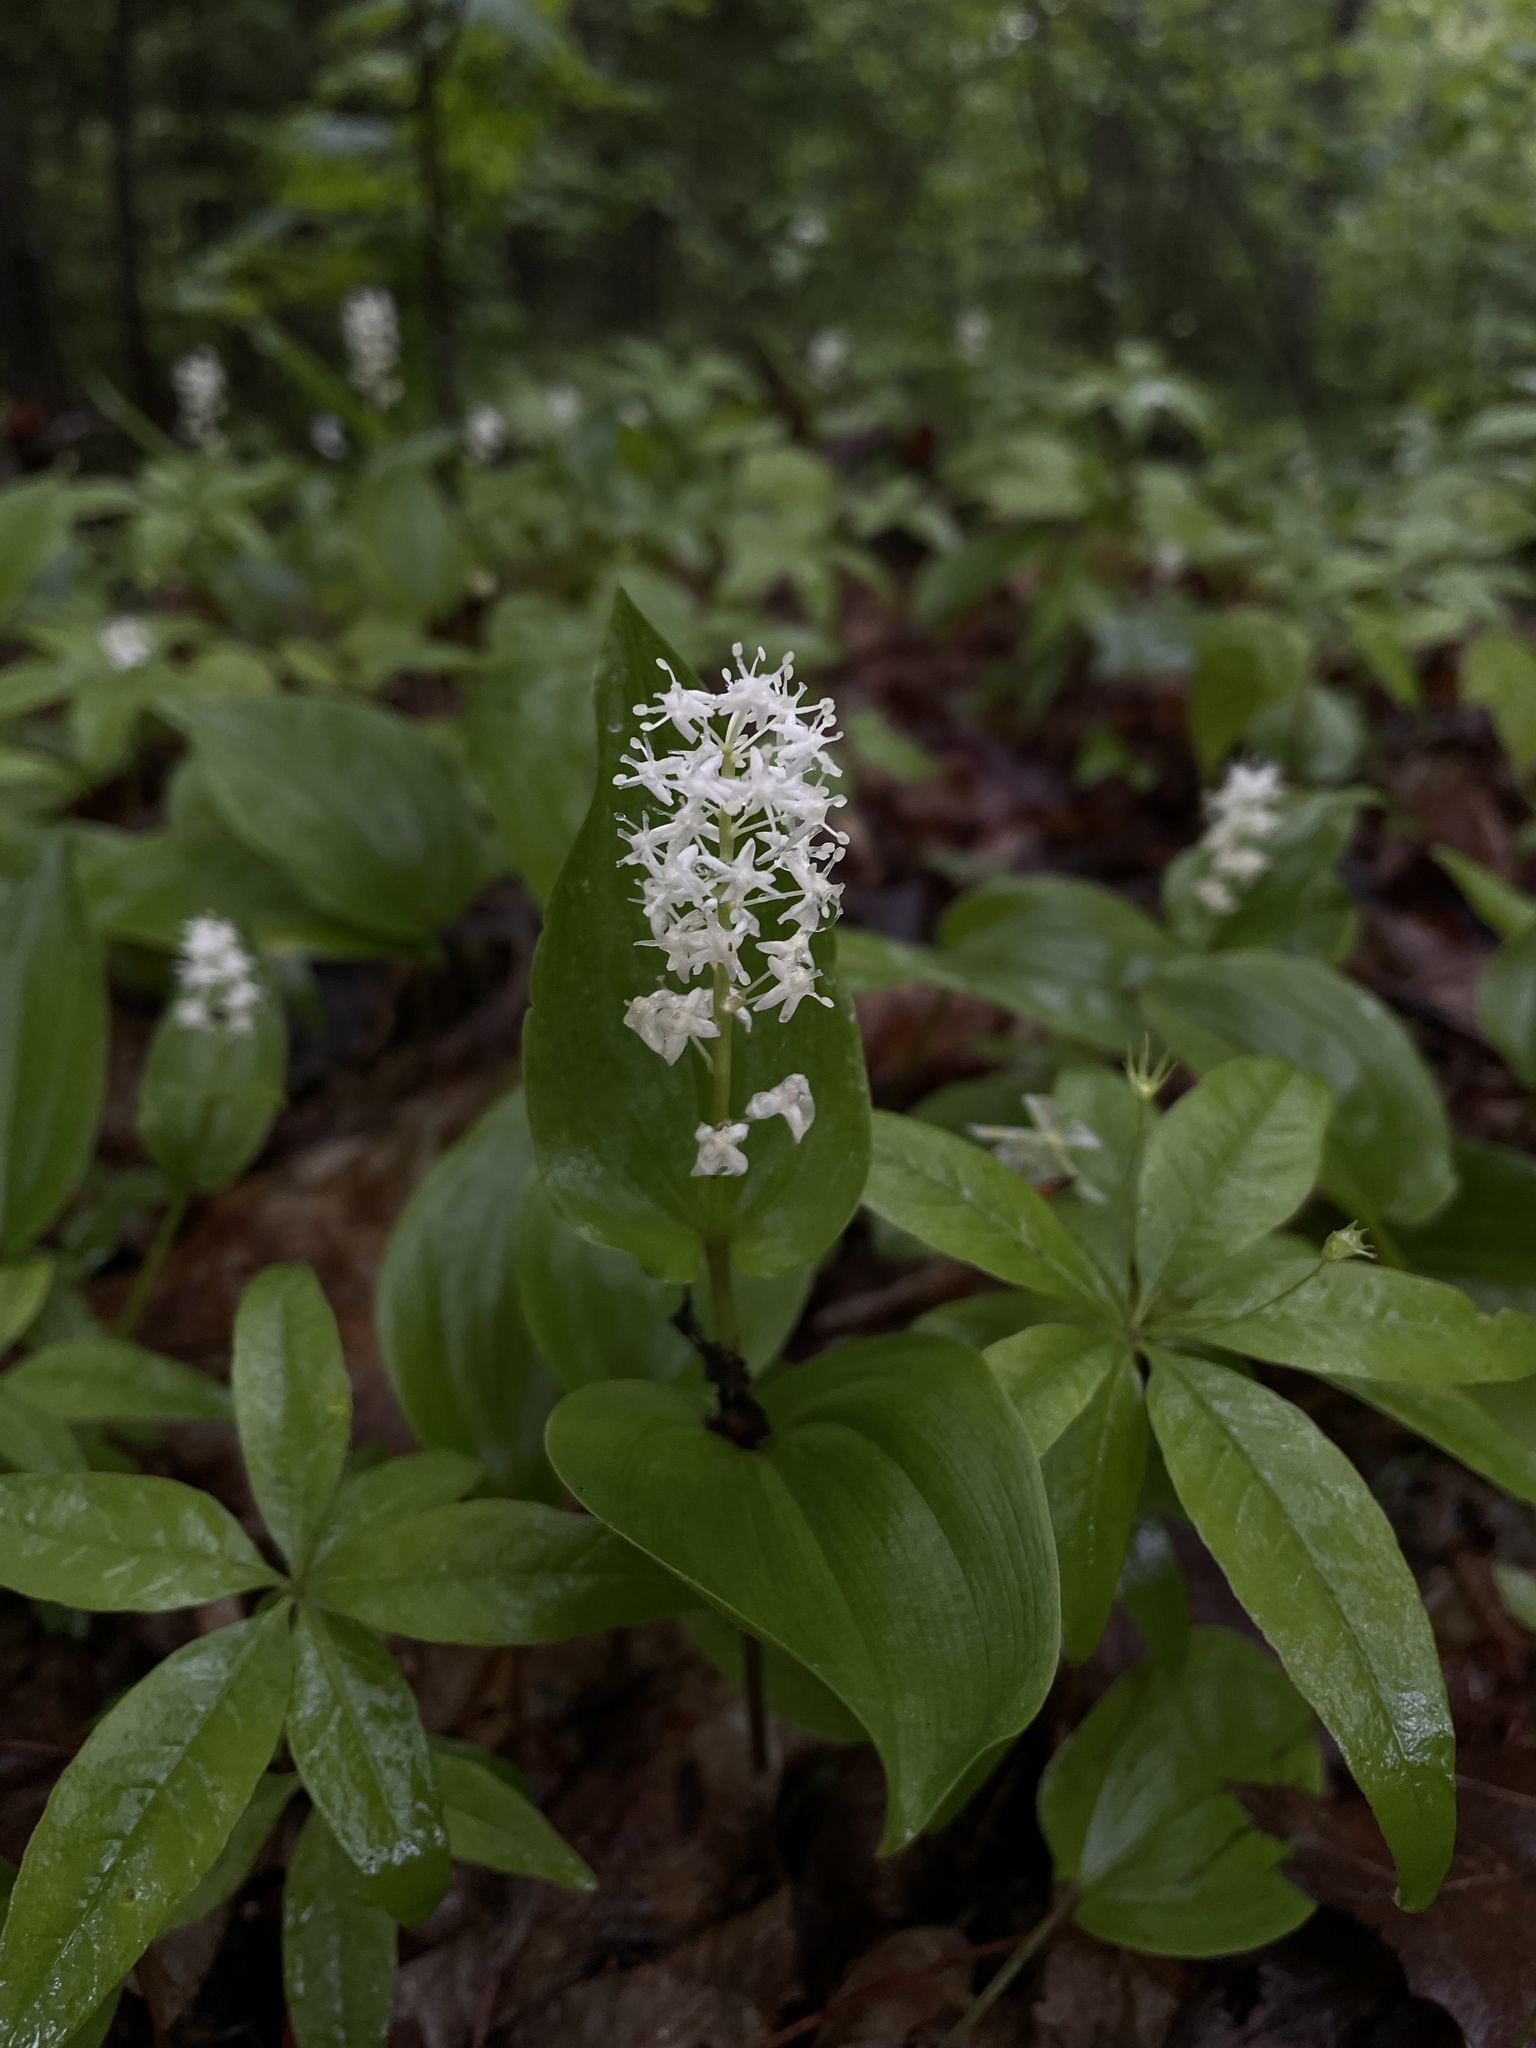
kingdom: Plantae
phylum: Tracheophyta
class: Liliopsida
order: Asparagales
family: Asparagaceae
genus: Maianthemum
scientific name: Maianthemum canadense
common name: False lily-of-the-valley
